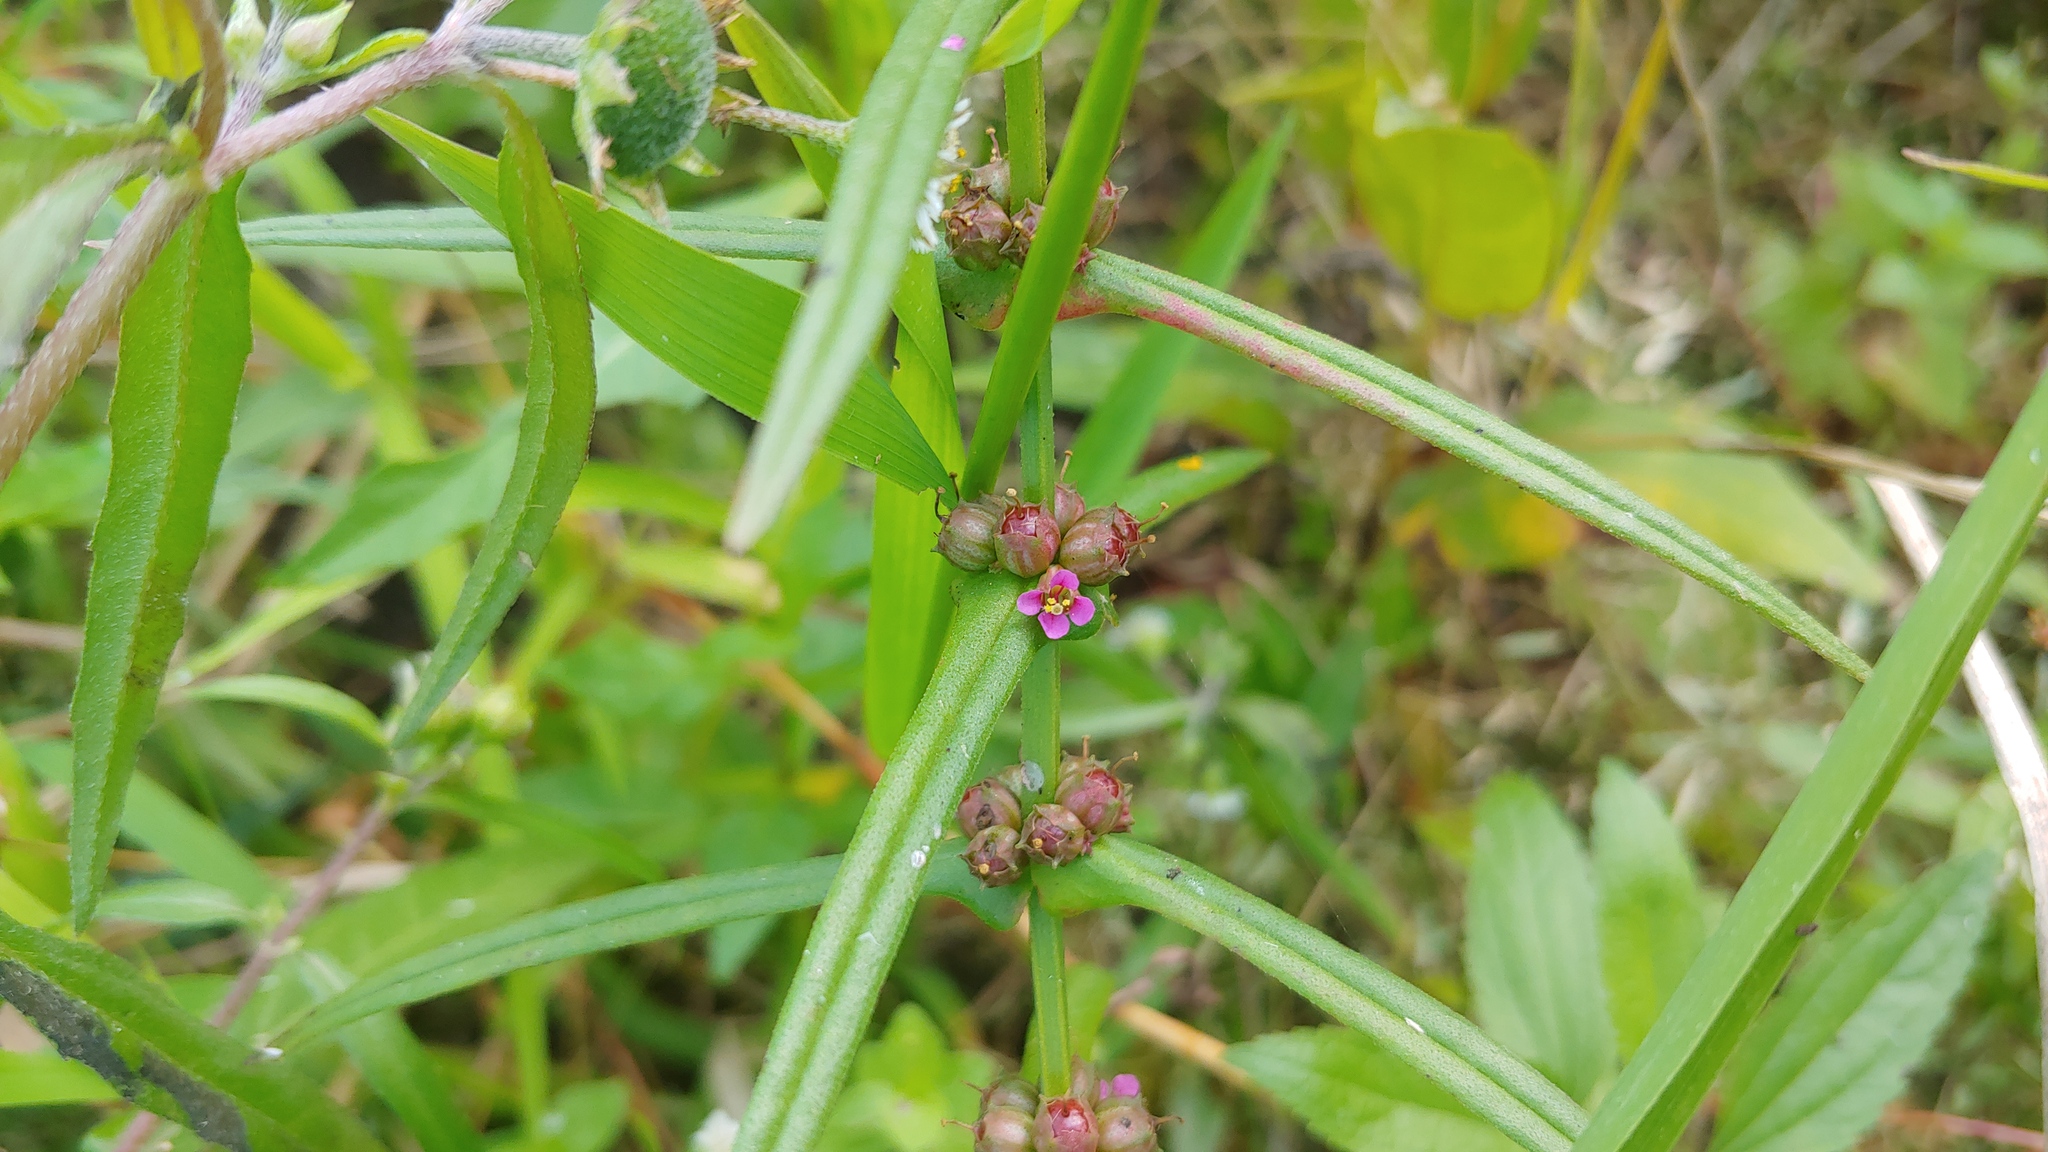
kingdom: Plantae
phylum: Tracheophyta
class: Magnoliopsida
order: Myrtales
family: Lythraceae
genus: Ammannia
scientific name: Ammannia coccinea
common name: Valley redstem
